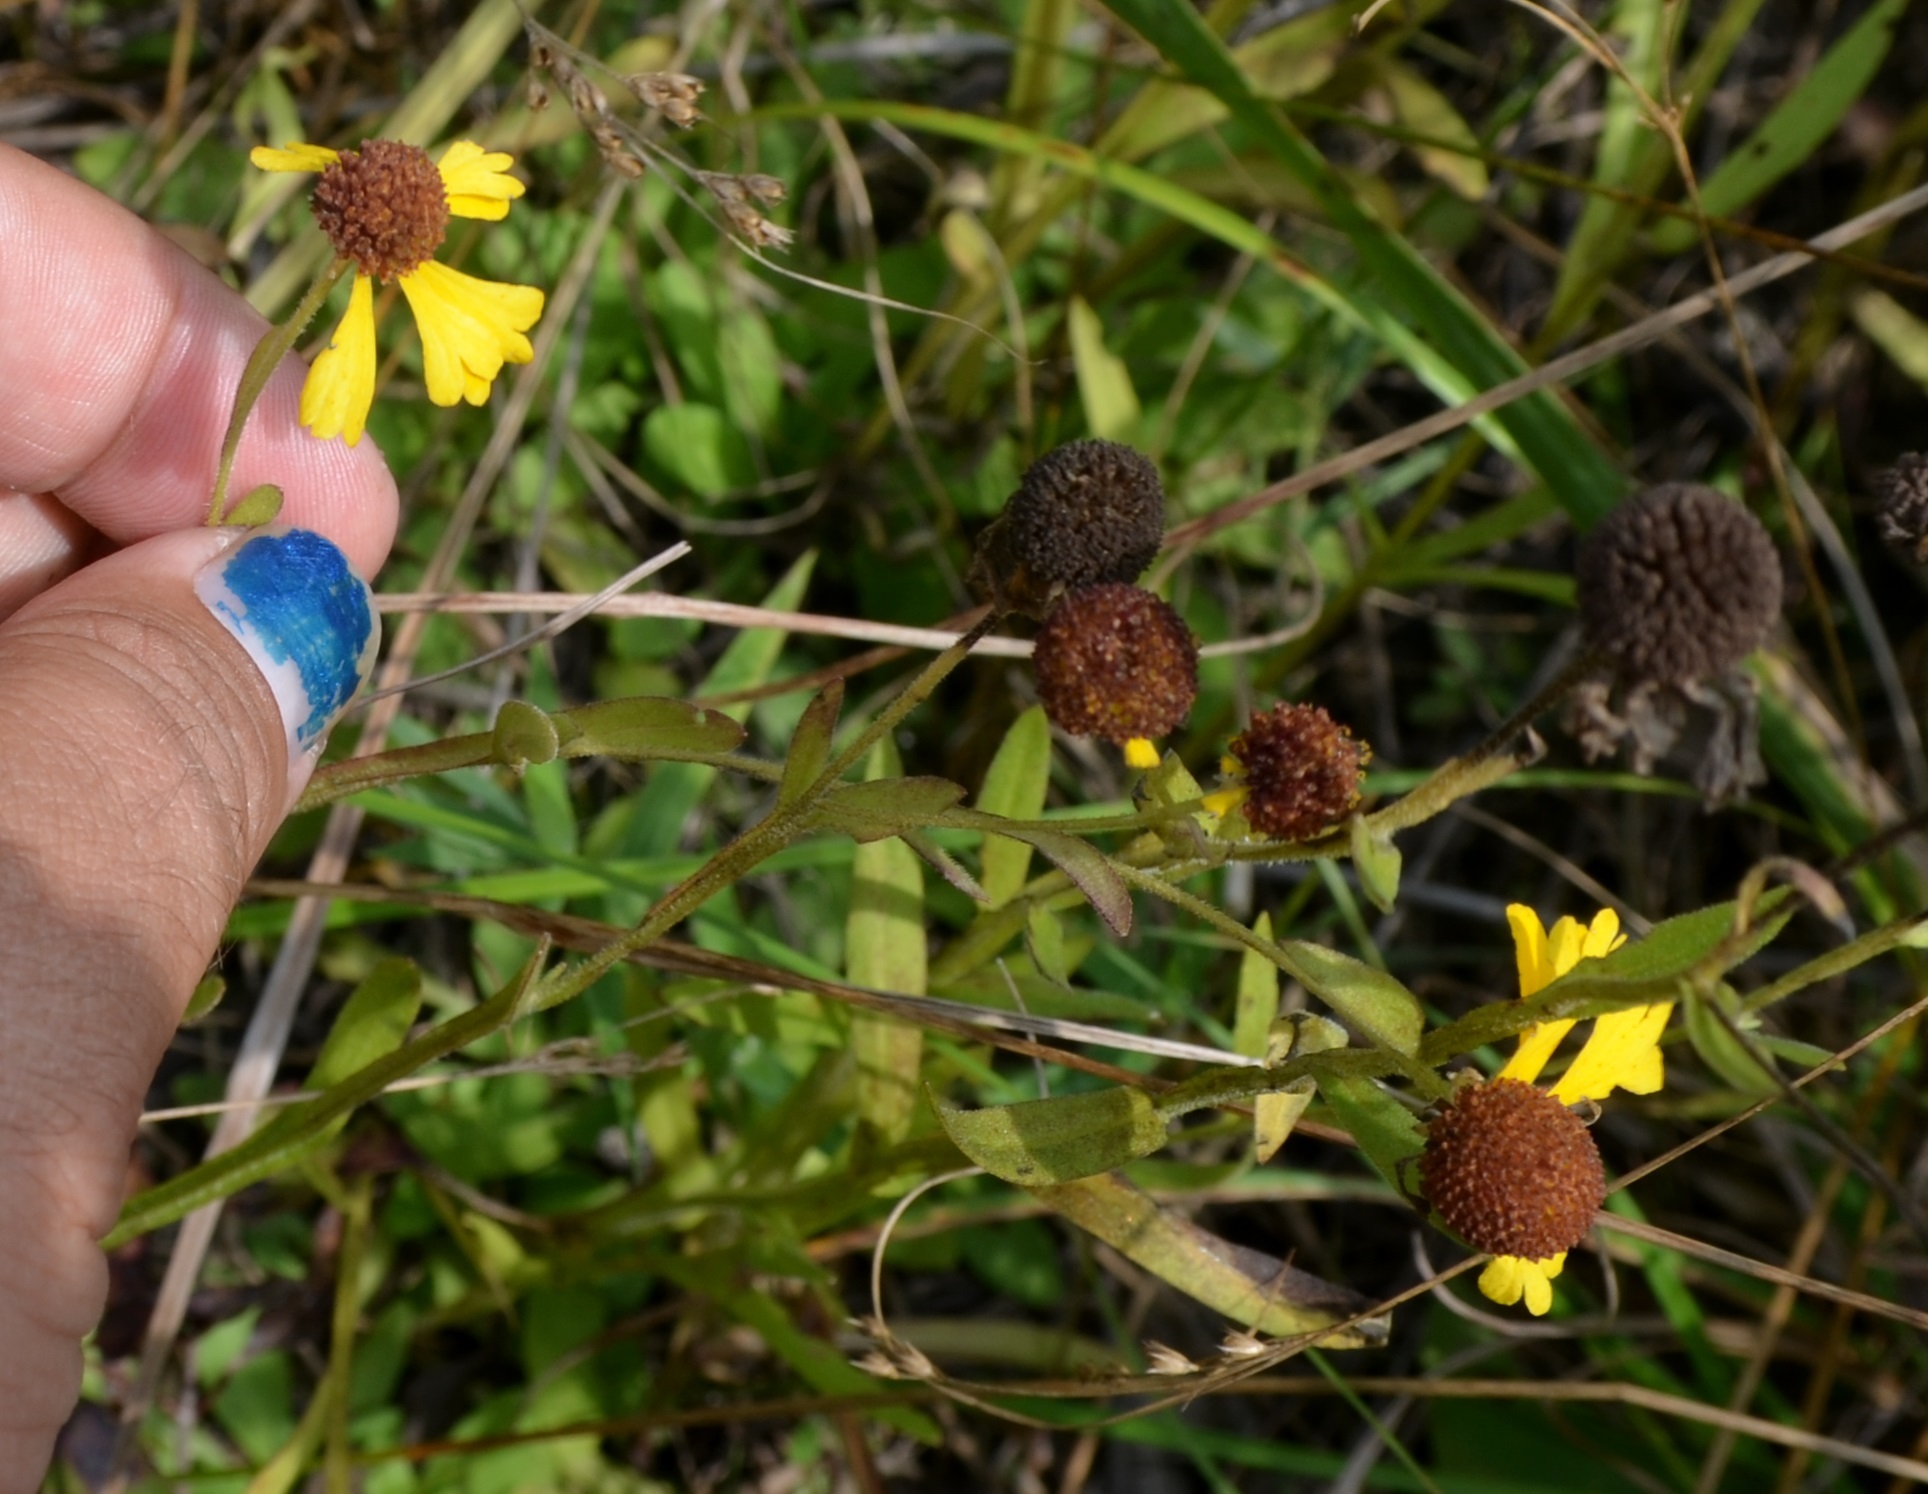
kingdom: Plantae
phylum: Tracheophyta
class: Magnoliopsida
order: Asterales
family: Asteraceae
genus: Helenium
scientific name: Helenium flexuosum
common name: Naked-flowered sneezeweed
